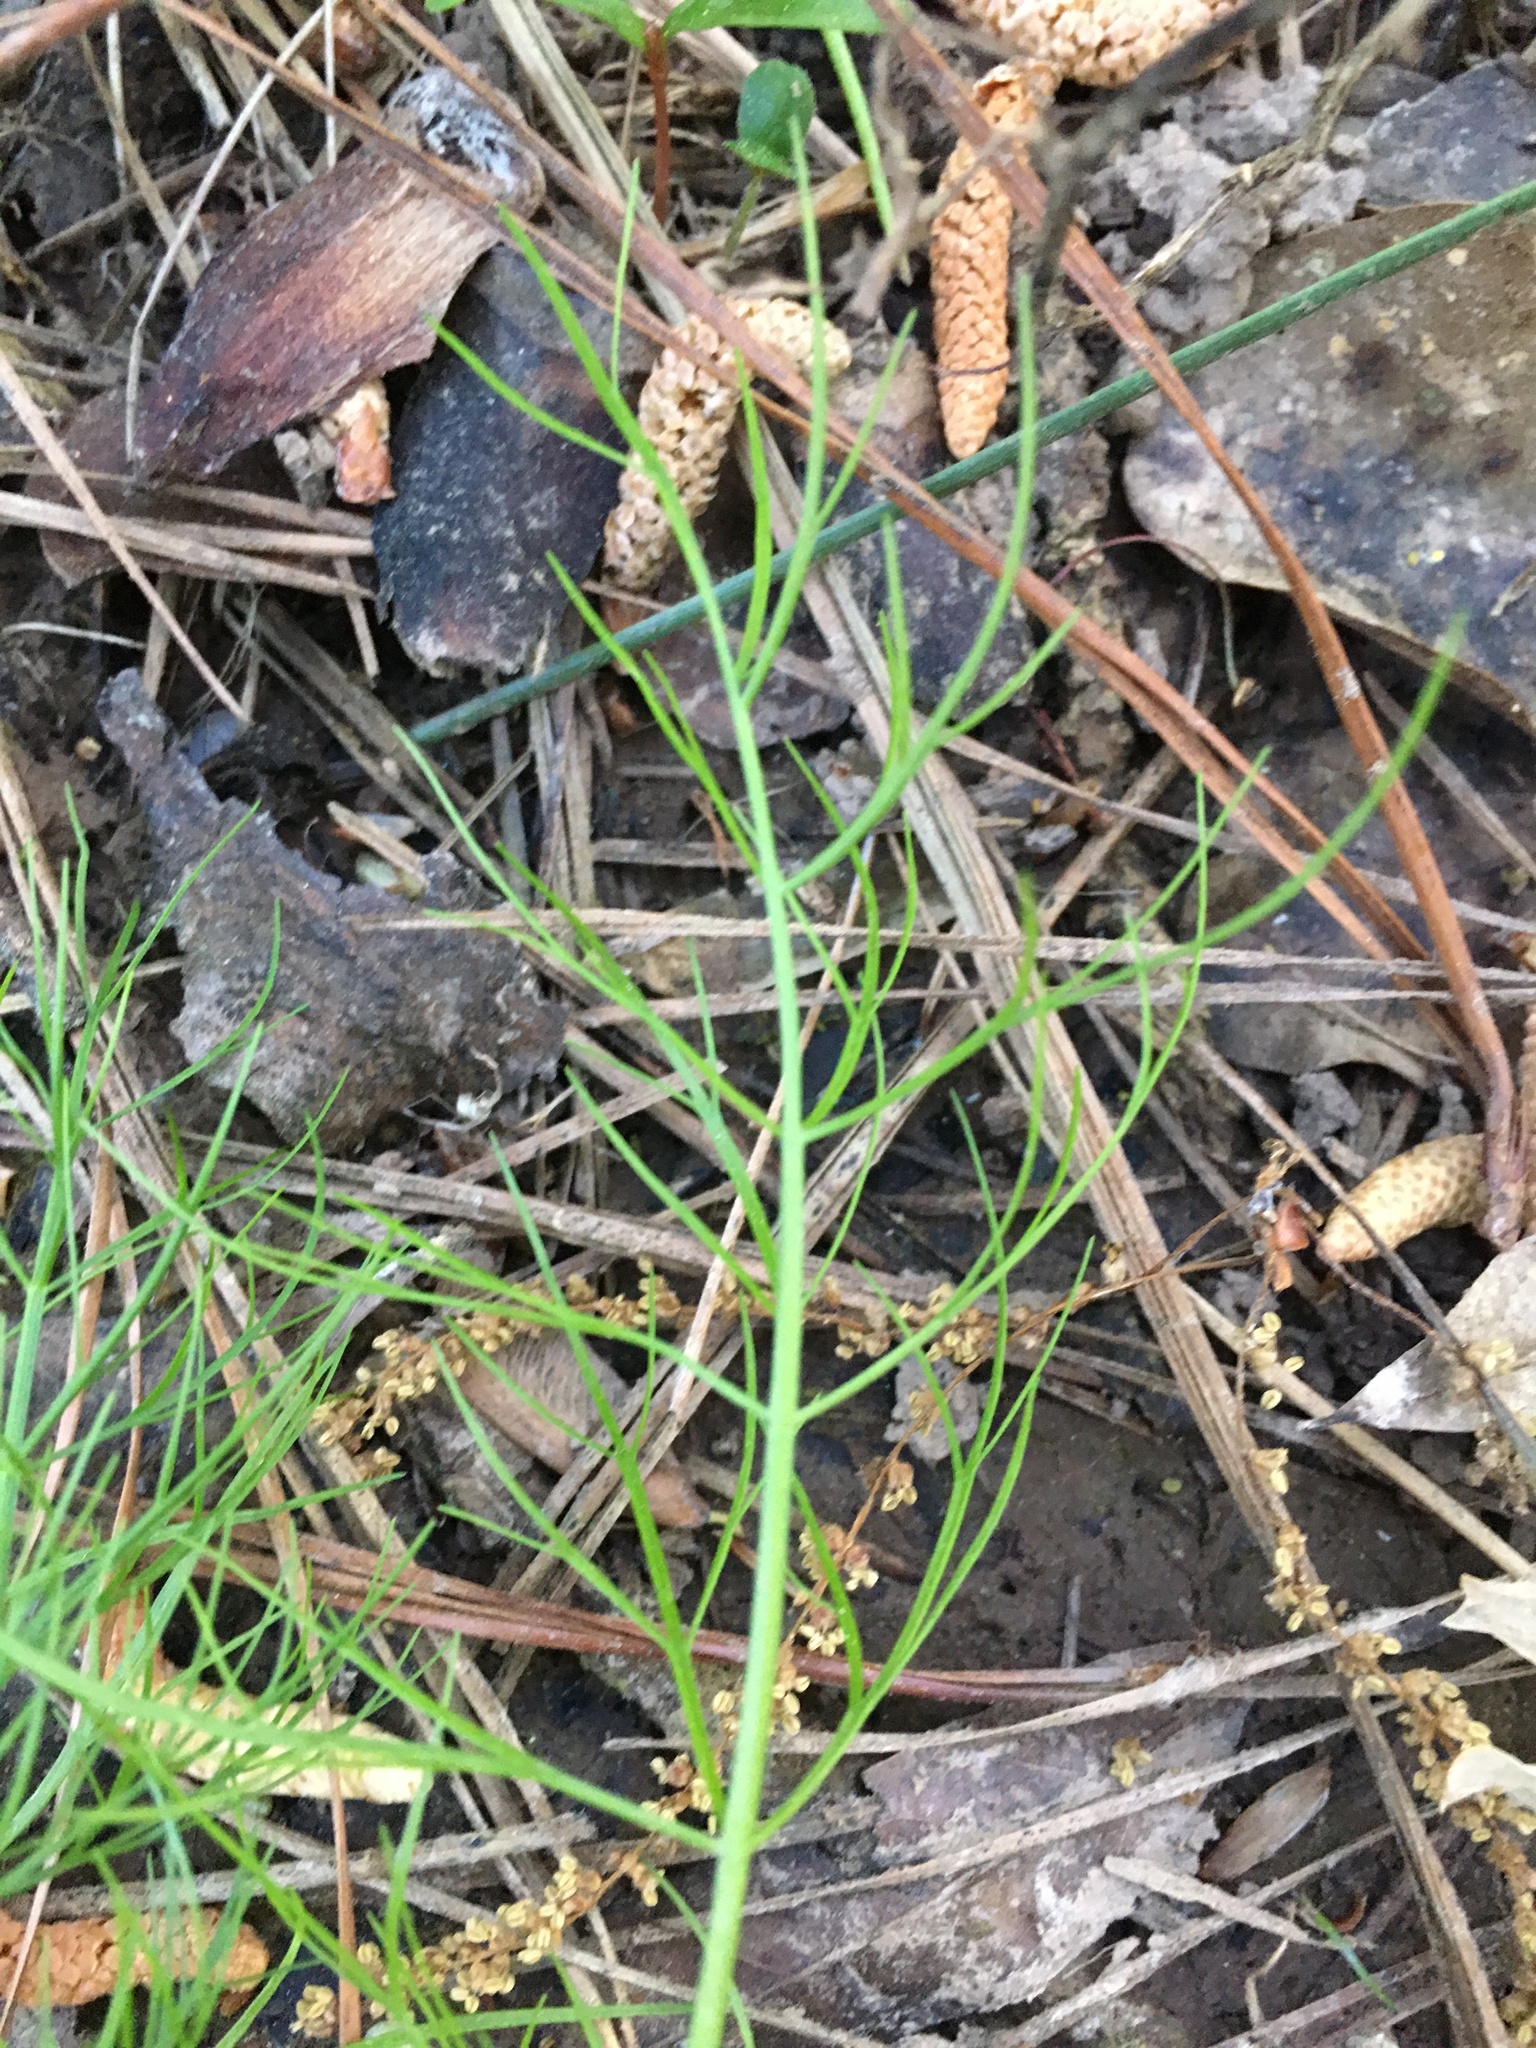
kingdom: Plantae
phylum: Tracheophyta
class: Magnoliopsida
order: Apiales
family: Apiaceae
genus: Ptilimnium
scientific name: Ptilimnium capillaceum
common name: Herbwilliam
